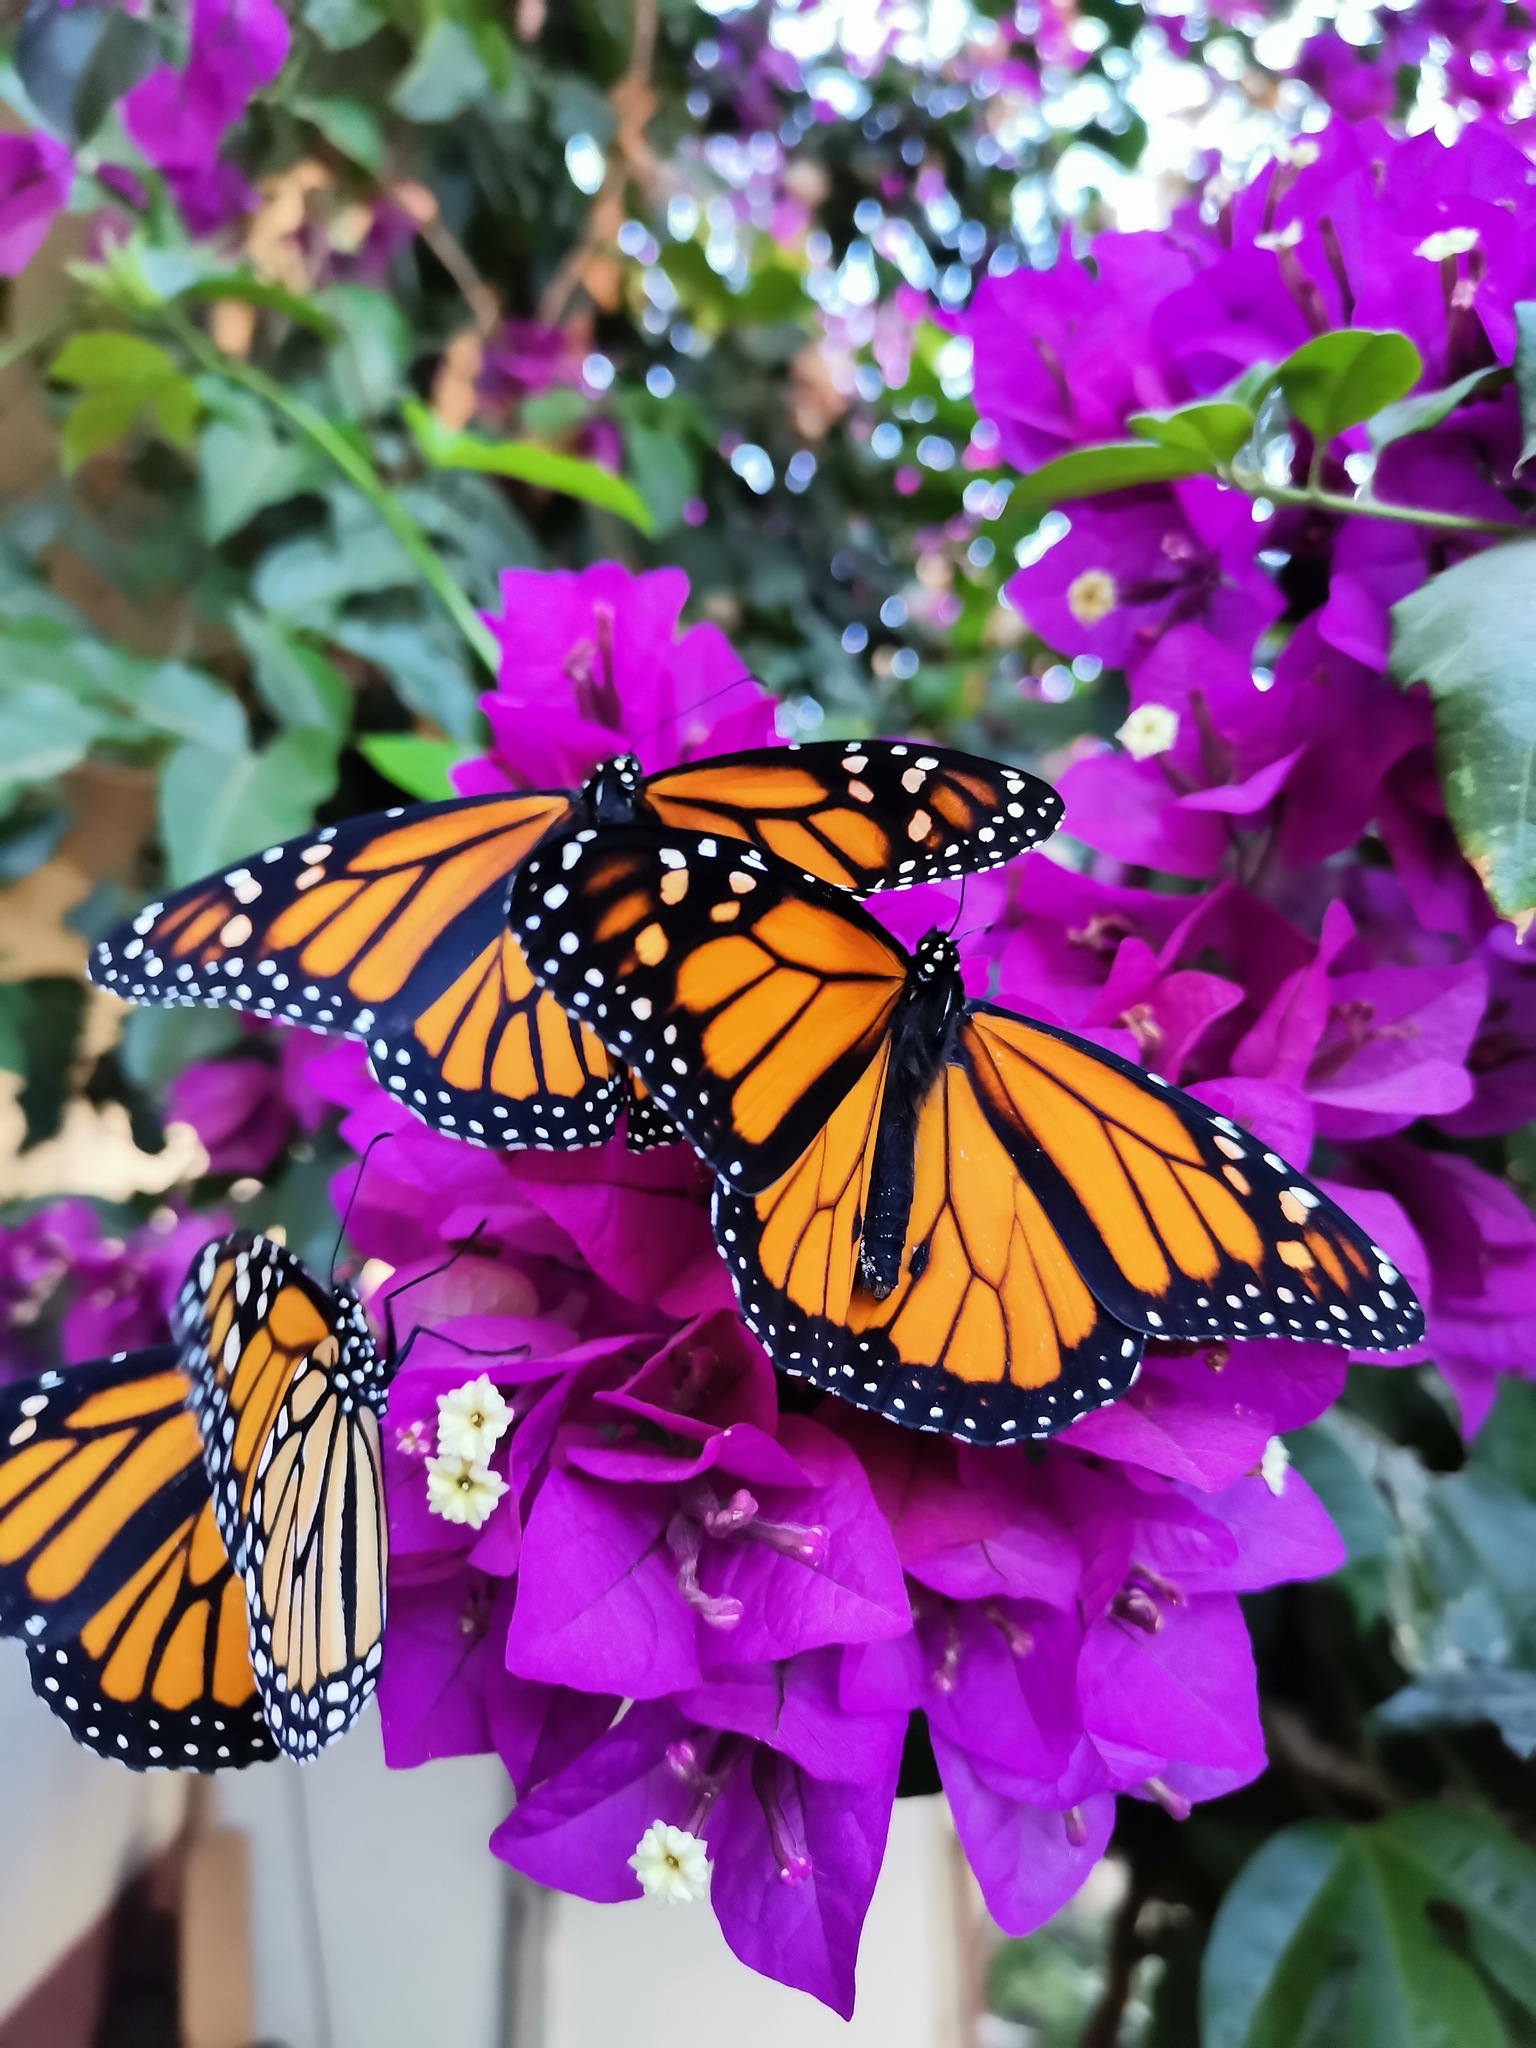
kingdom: Animalia
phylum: Arthropoda
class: Insecta
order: Lepidoptera
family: Nymphalidae
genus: Danaus
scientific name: Danaus plexippus
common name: Monarch
